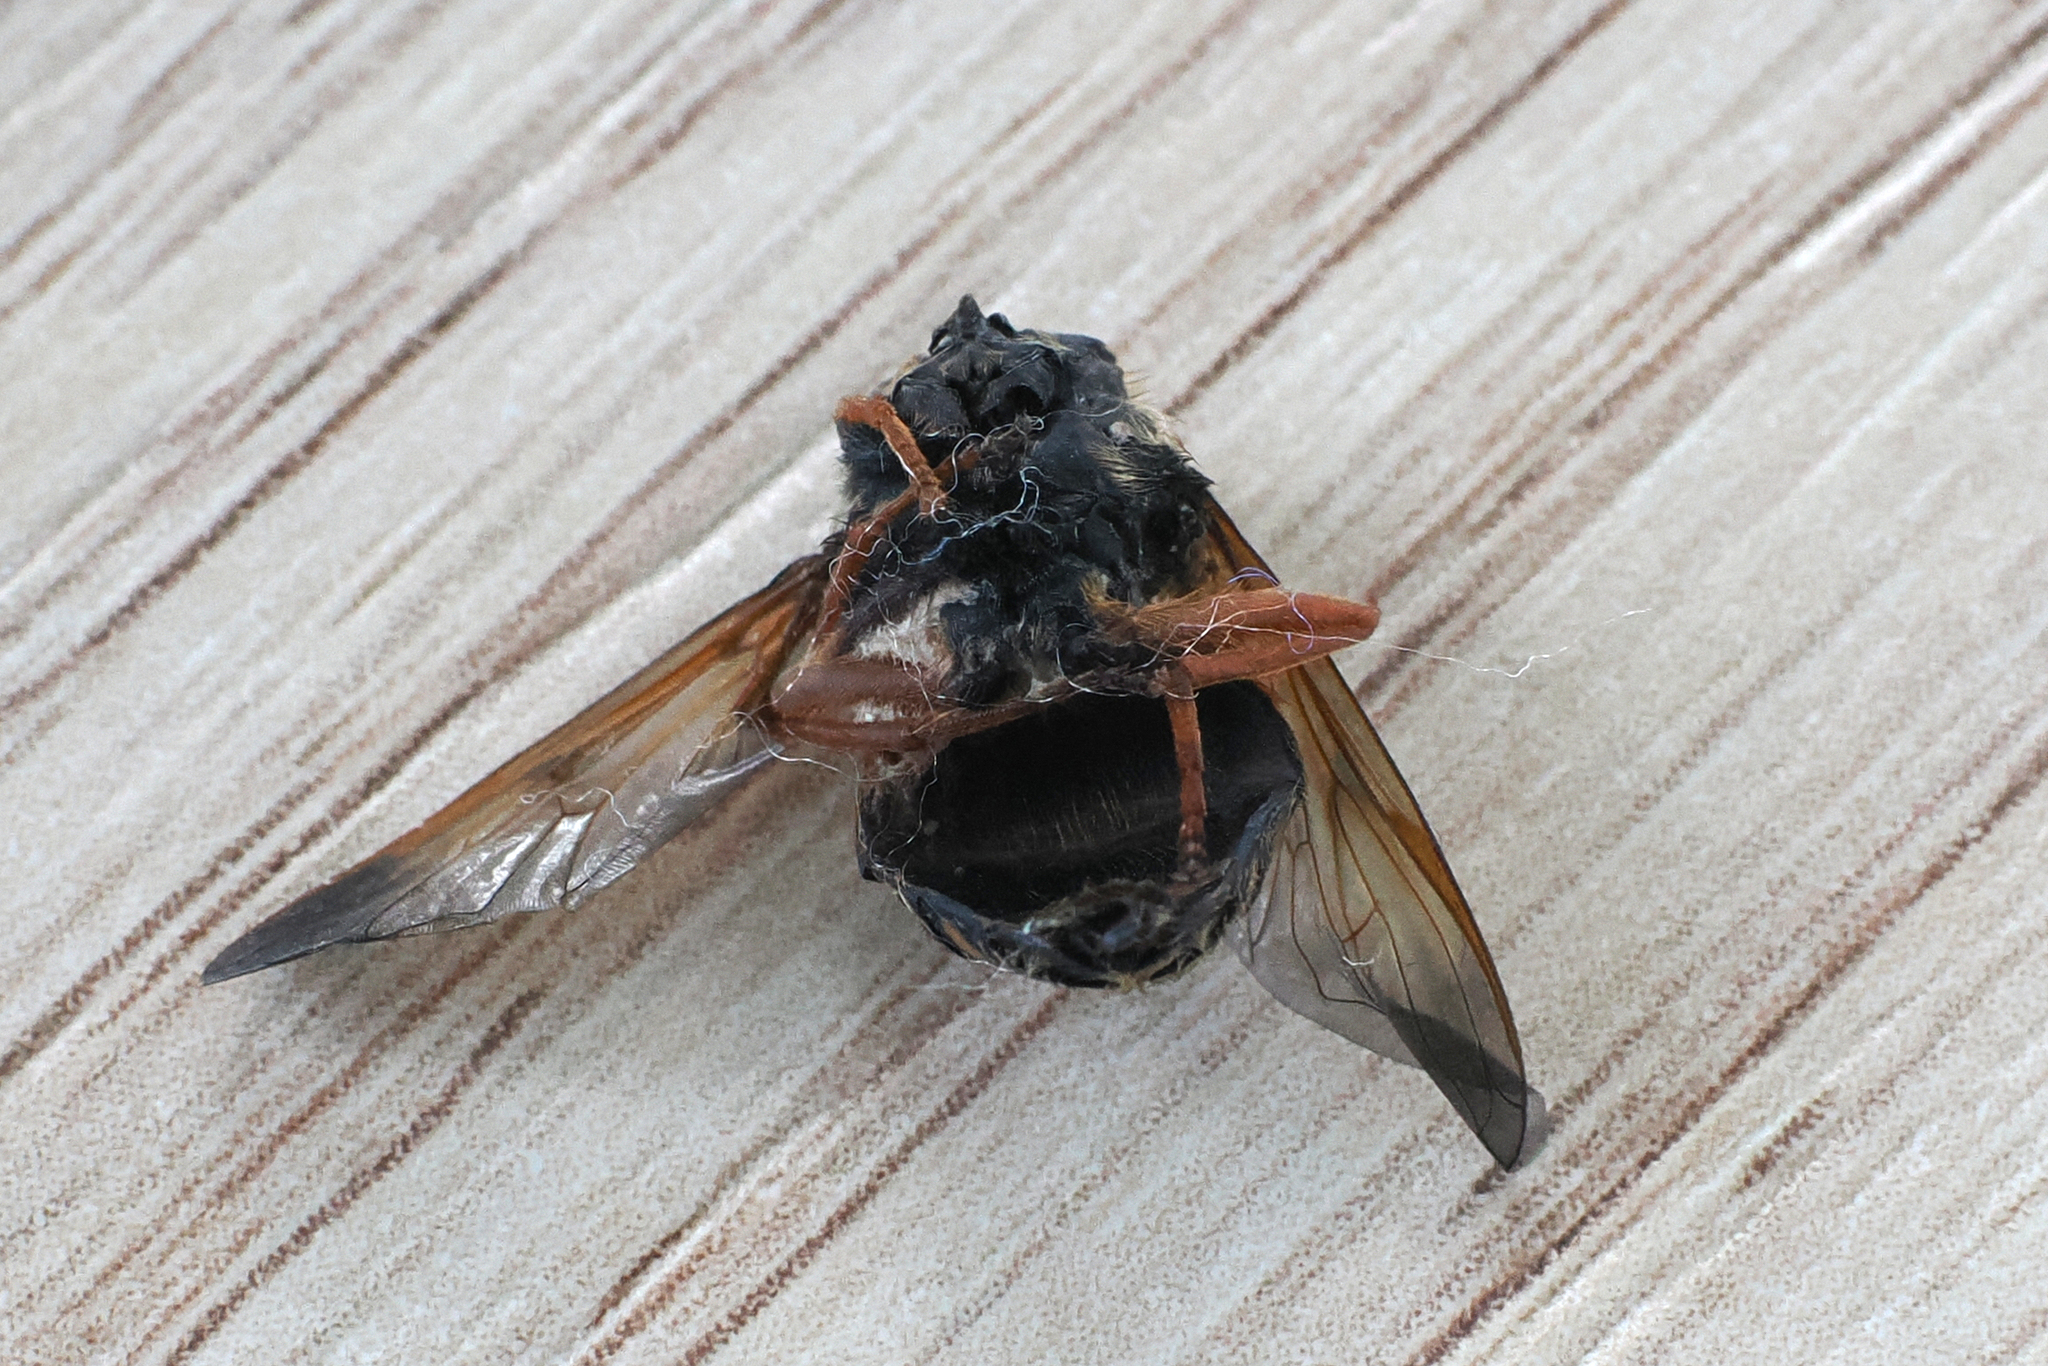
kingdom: Animalia
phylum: Arthropoda
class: Insecta
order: Diptera
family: Syrphidae
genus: Sericomyia
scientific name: Sericomyia woodi
